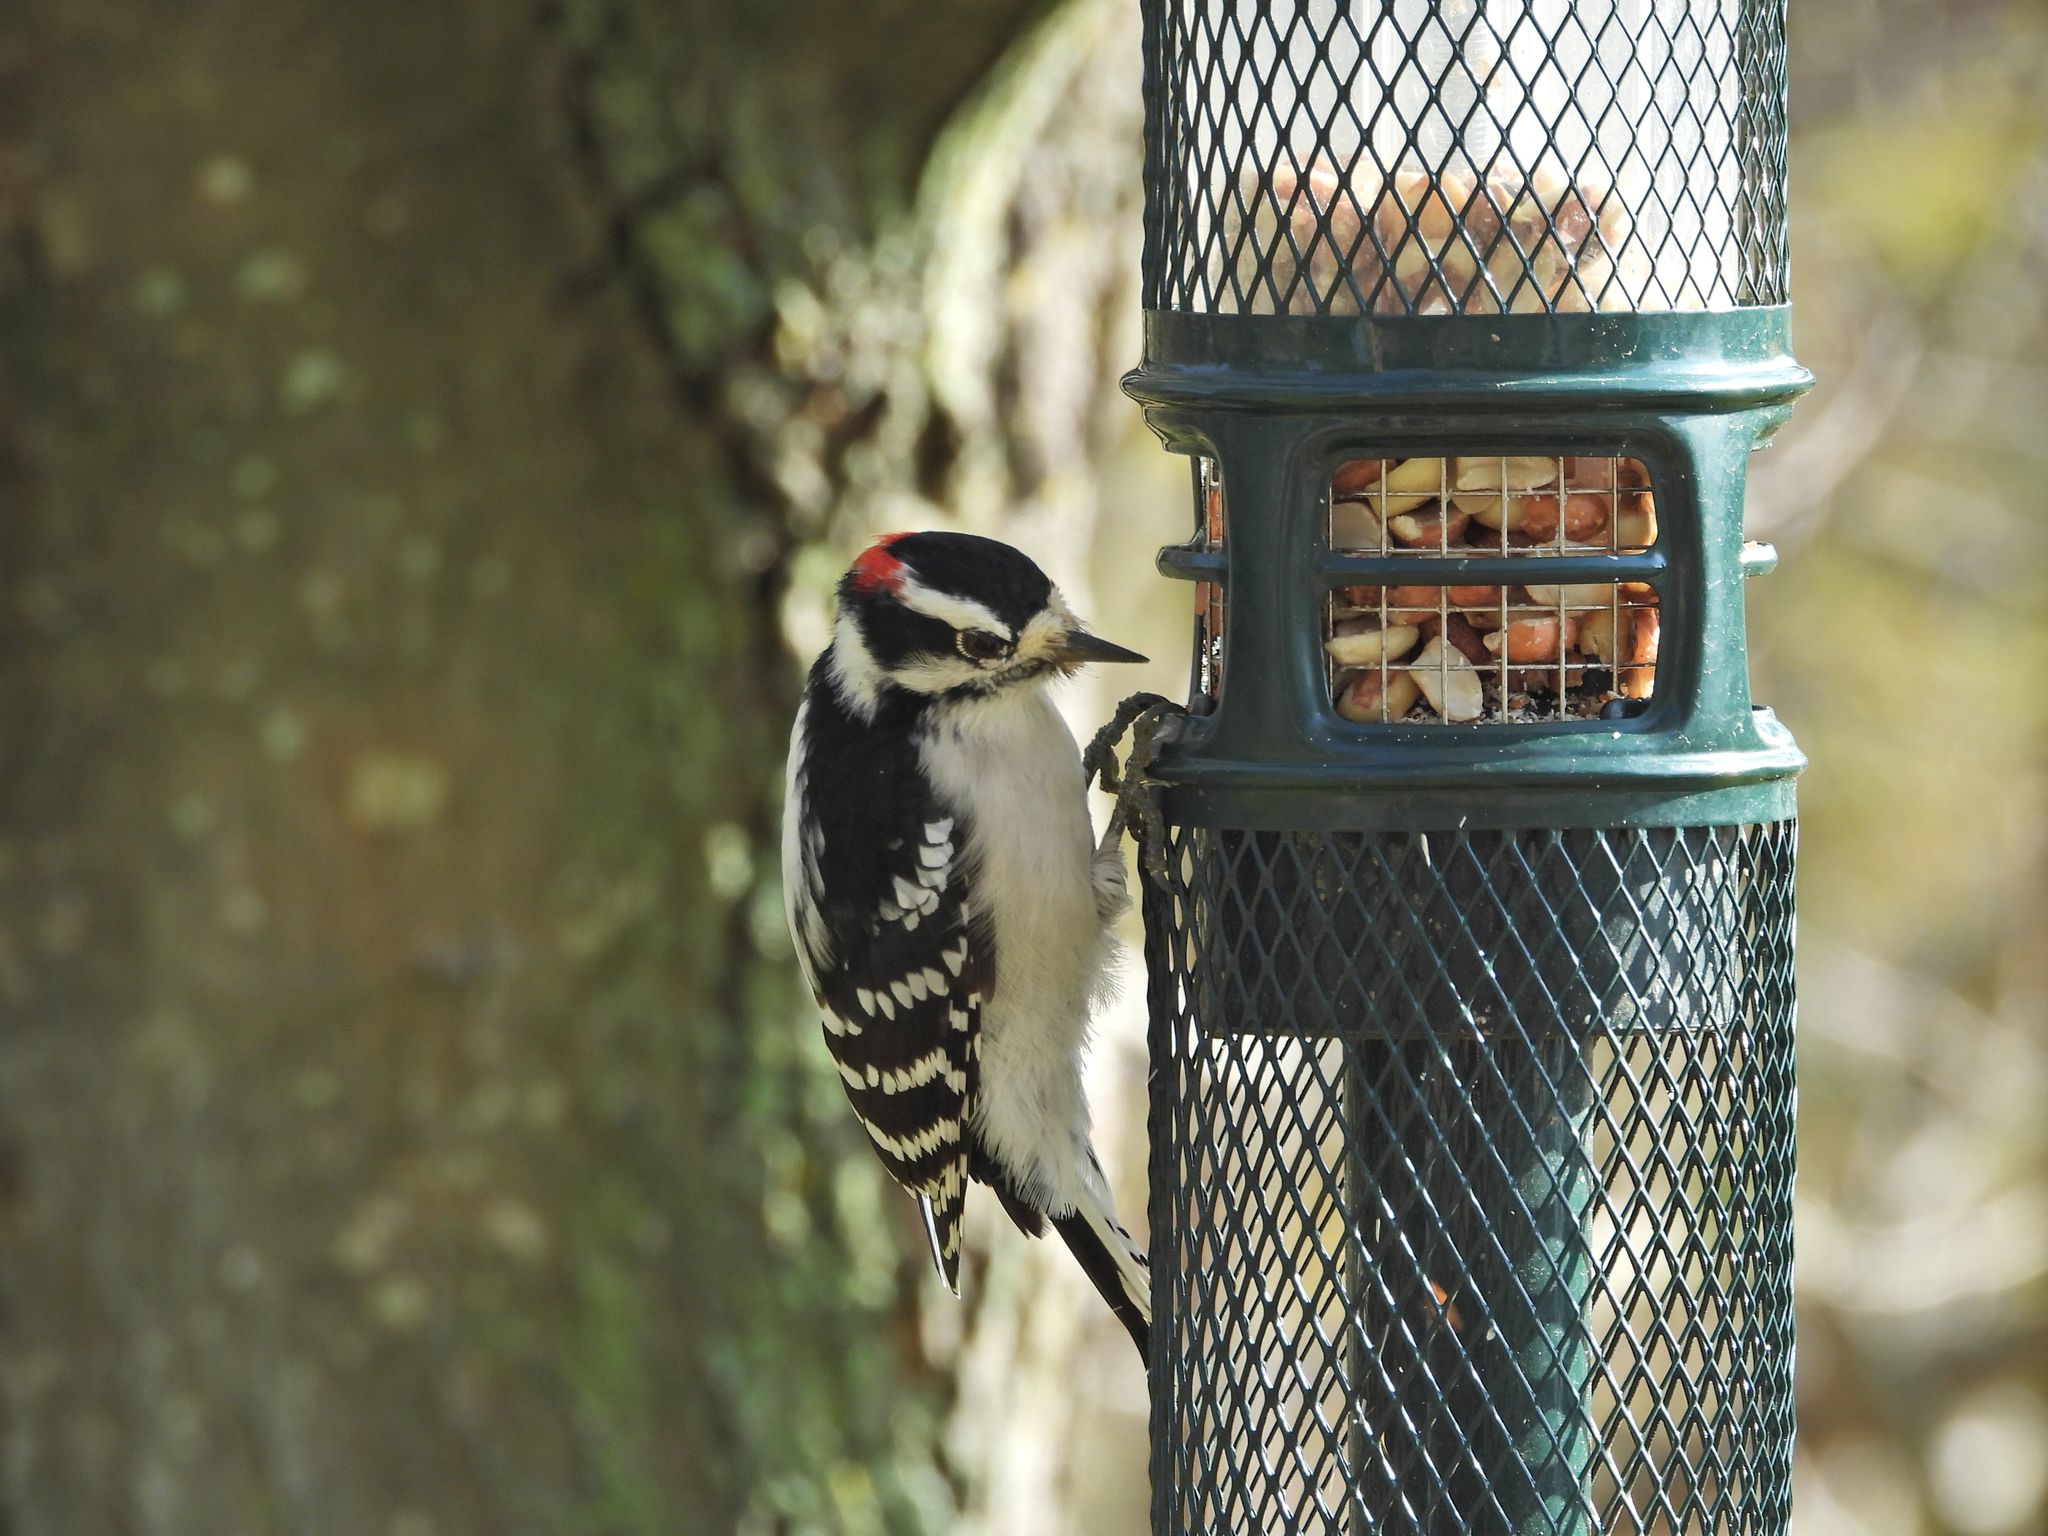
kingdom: Animalia
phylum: Chordata
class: Aves
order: Piciformes
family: Picidae
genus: Dryobates
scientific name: Dryobates pubescens
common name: Downy woodpecker
